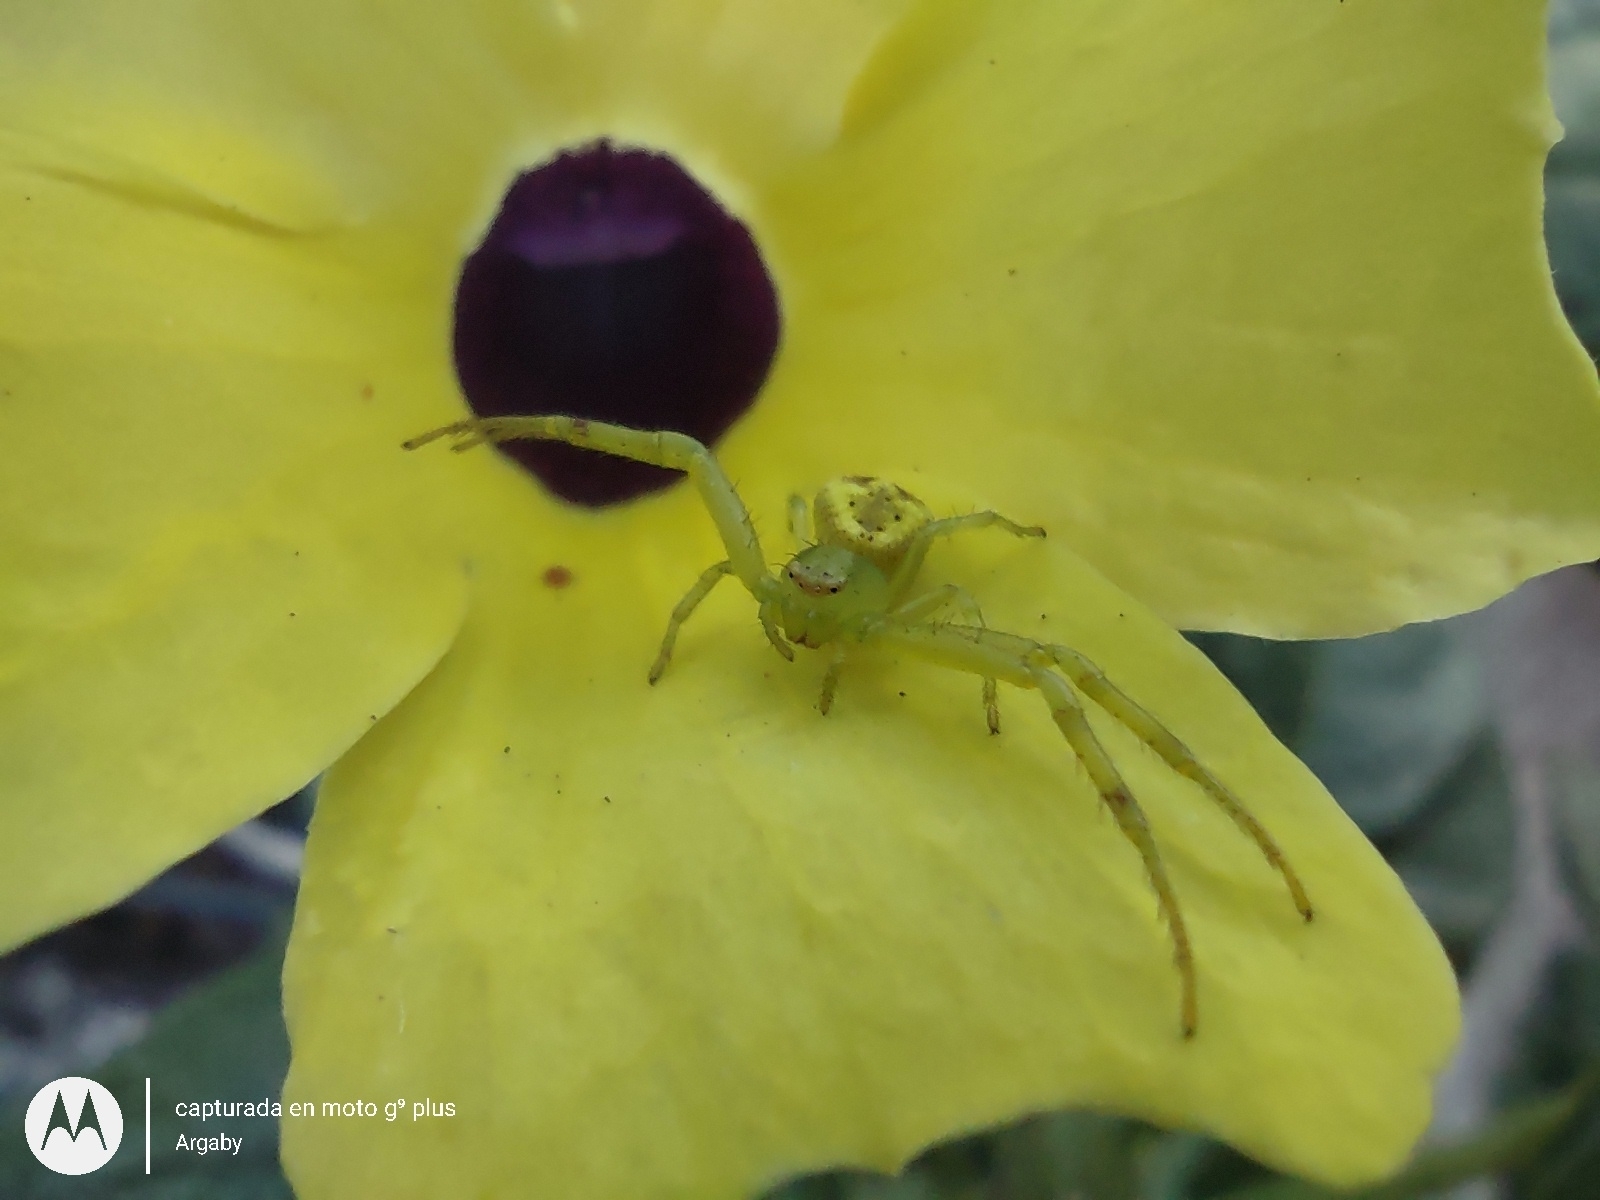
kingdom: Animalia
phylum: Arthropoda
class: Arachnida
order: Araneae
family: Thomisidae
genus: Misumenops
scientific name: Misumenops
